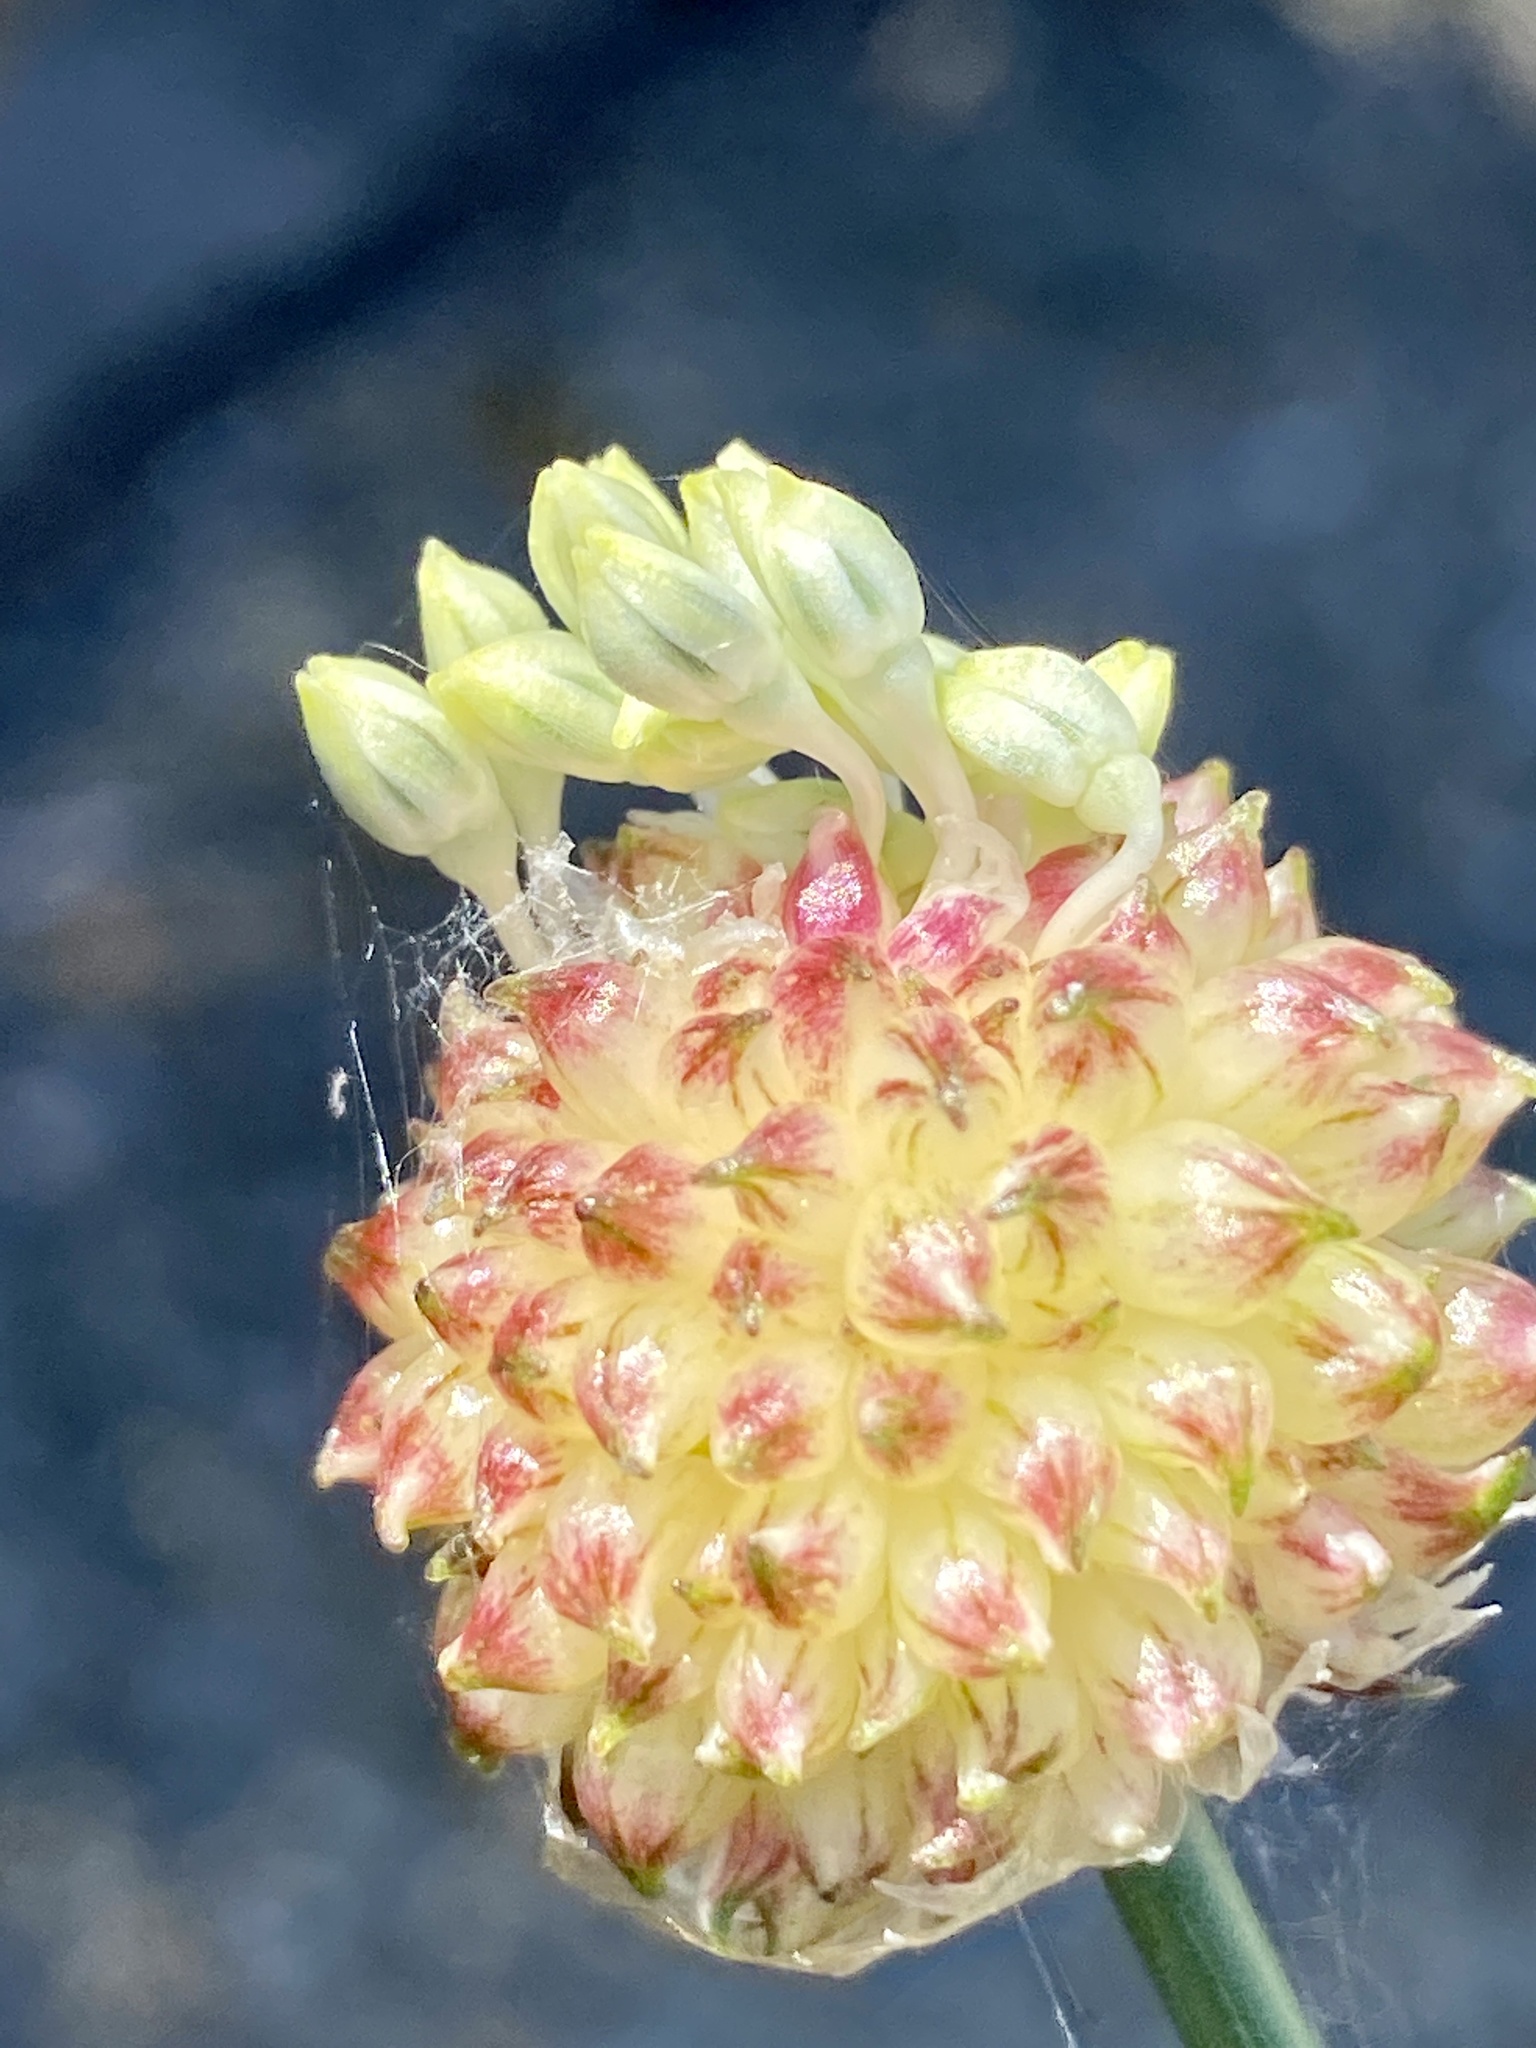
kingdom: Plantae
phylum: Tracheophyta
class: Liliopsida
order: Asparagales
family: Amaryllidaceae
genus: Allium
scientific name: Allium vineale
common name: Crow garlic
